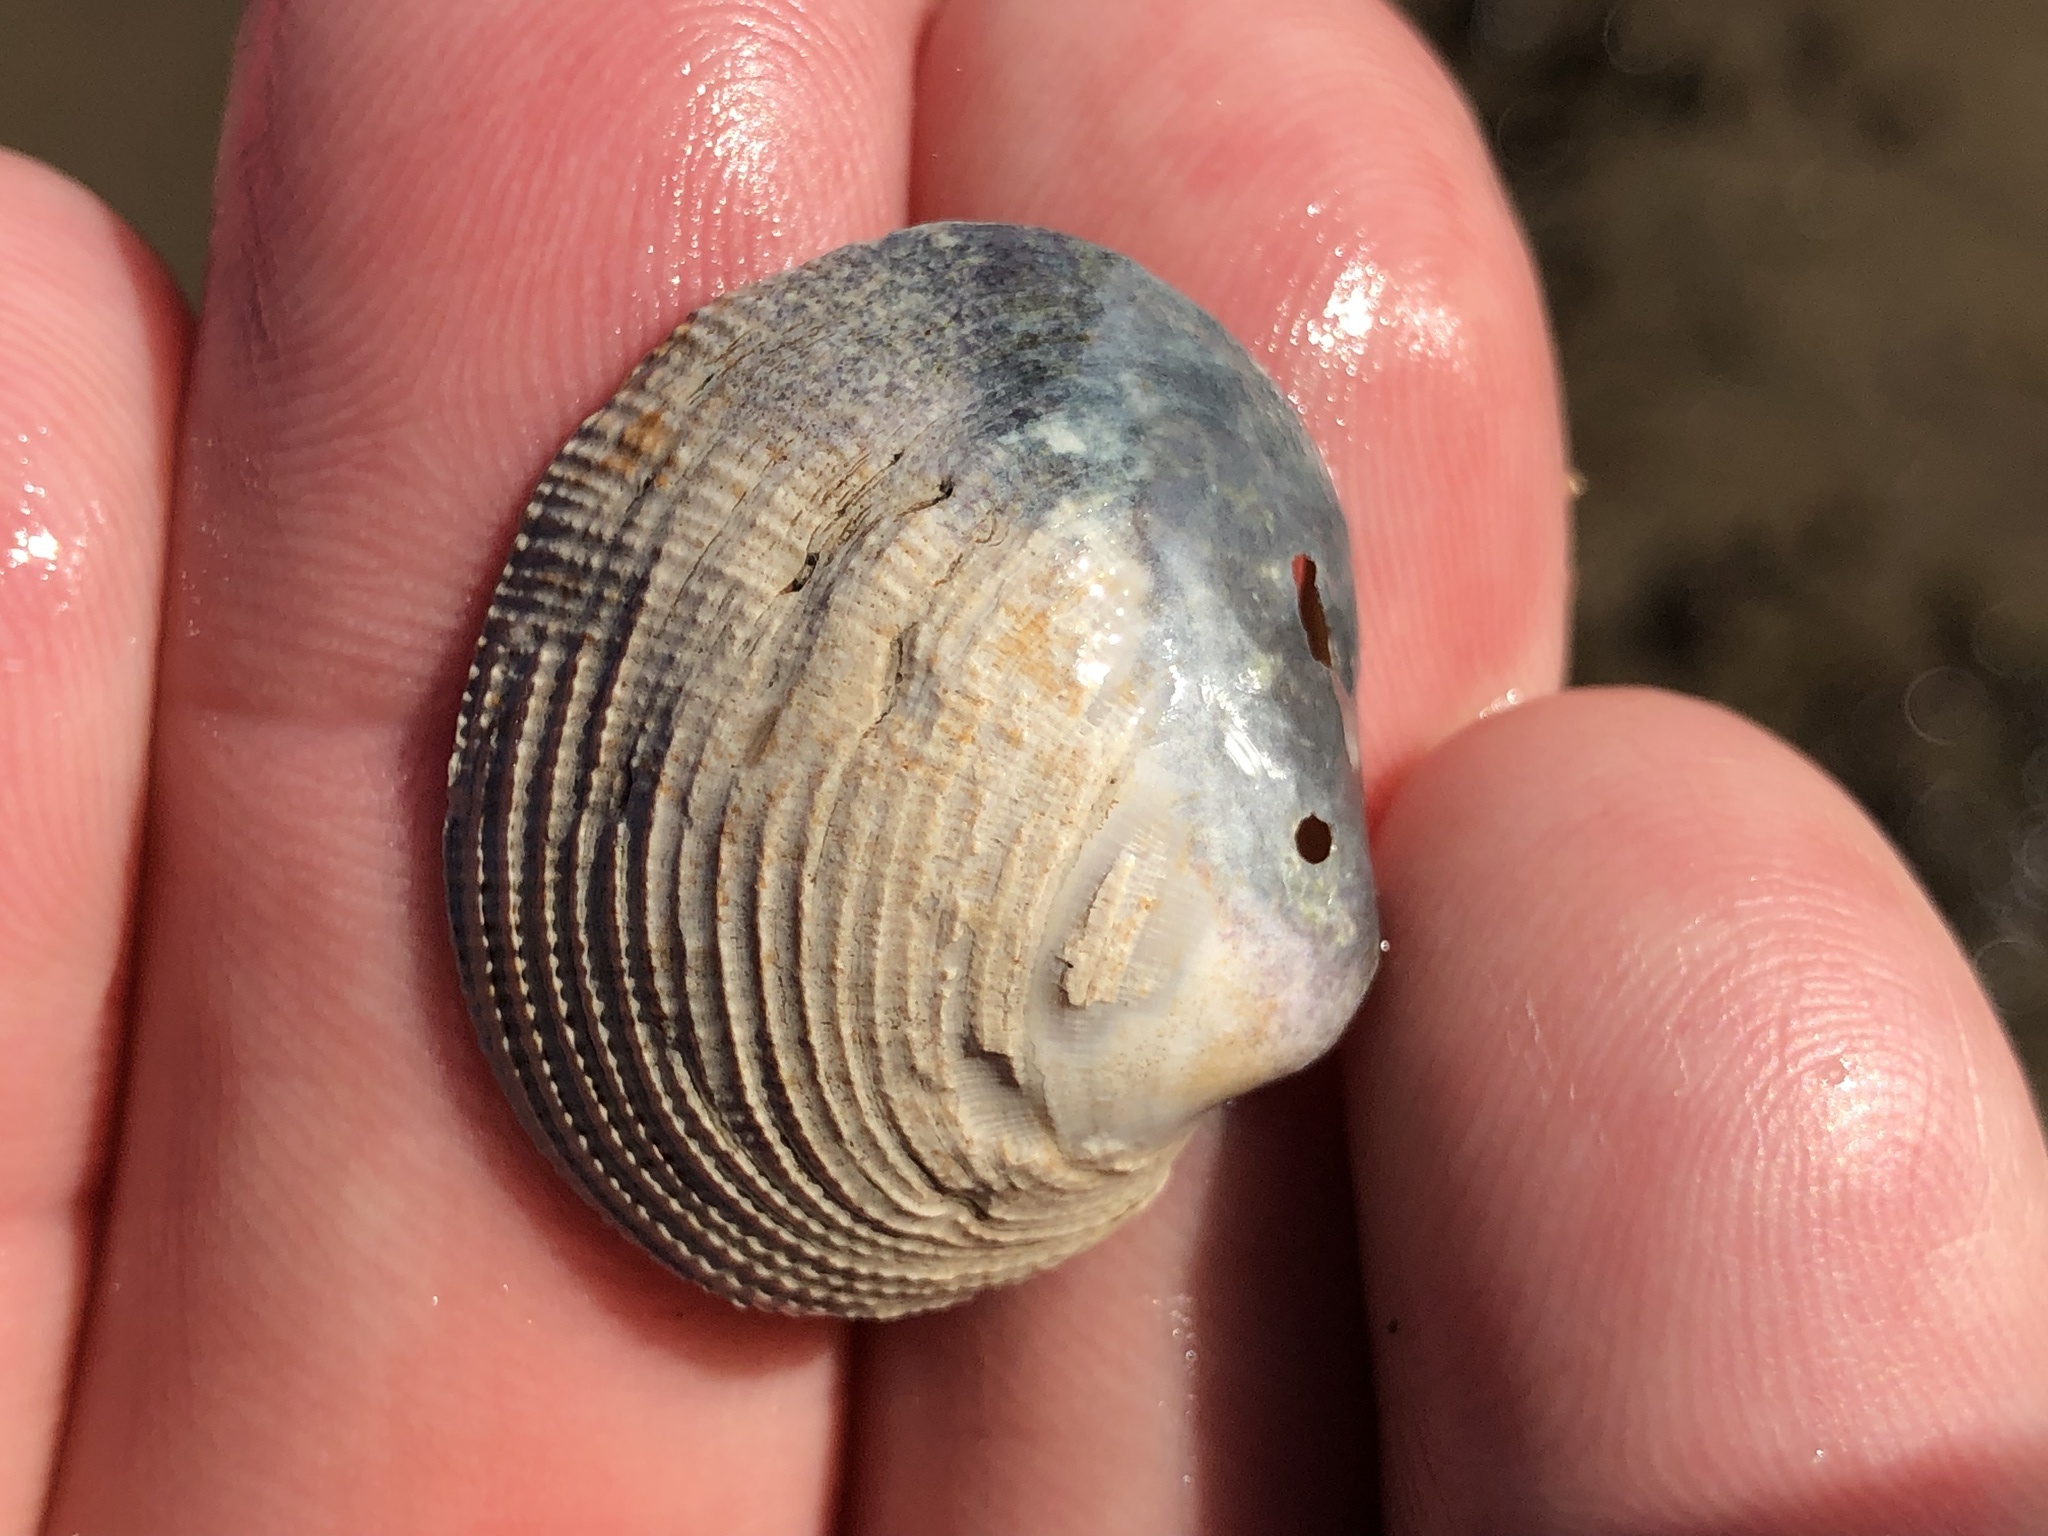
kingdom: Animalia
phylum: Mollusca
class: Bivalvia
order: Venerida
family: Veneridae
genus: Leukoma
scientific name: Leukoma laciniata
